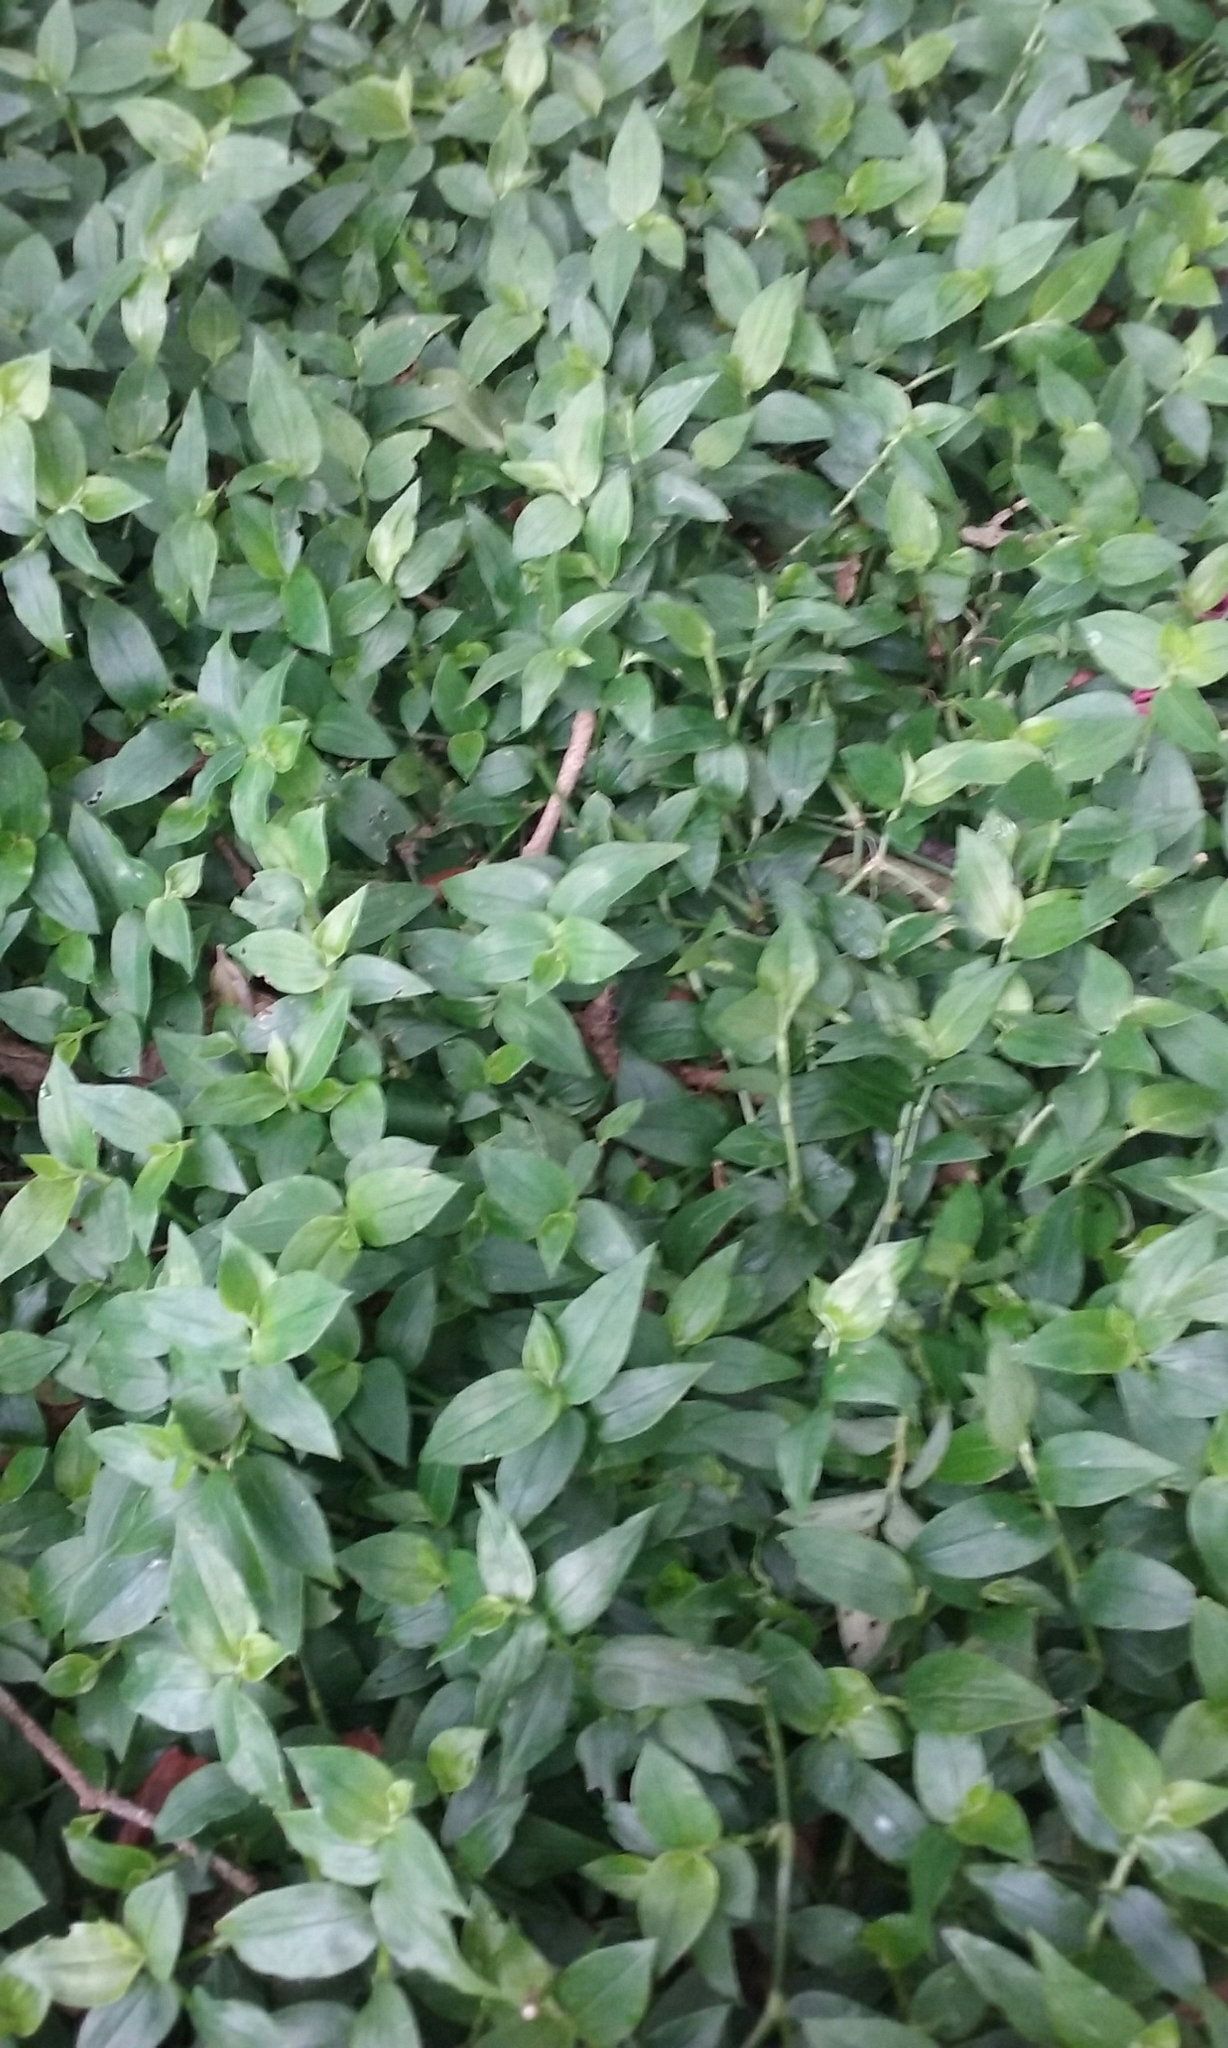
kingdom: Plantae
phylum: Tracheophyta
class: Liliopsida
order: Commelinales
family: Commelinaceae
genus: Tradescantia
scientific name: Tradescantia fluminensis
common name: Wandering-jew
